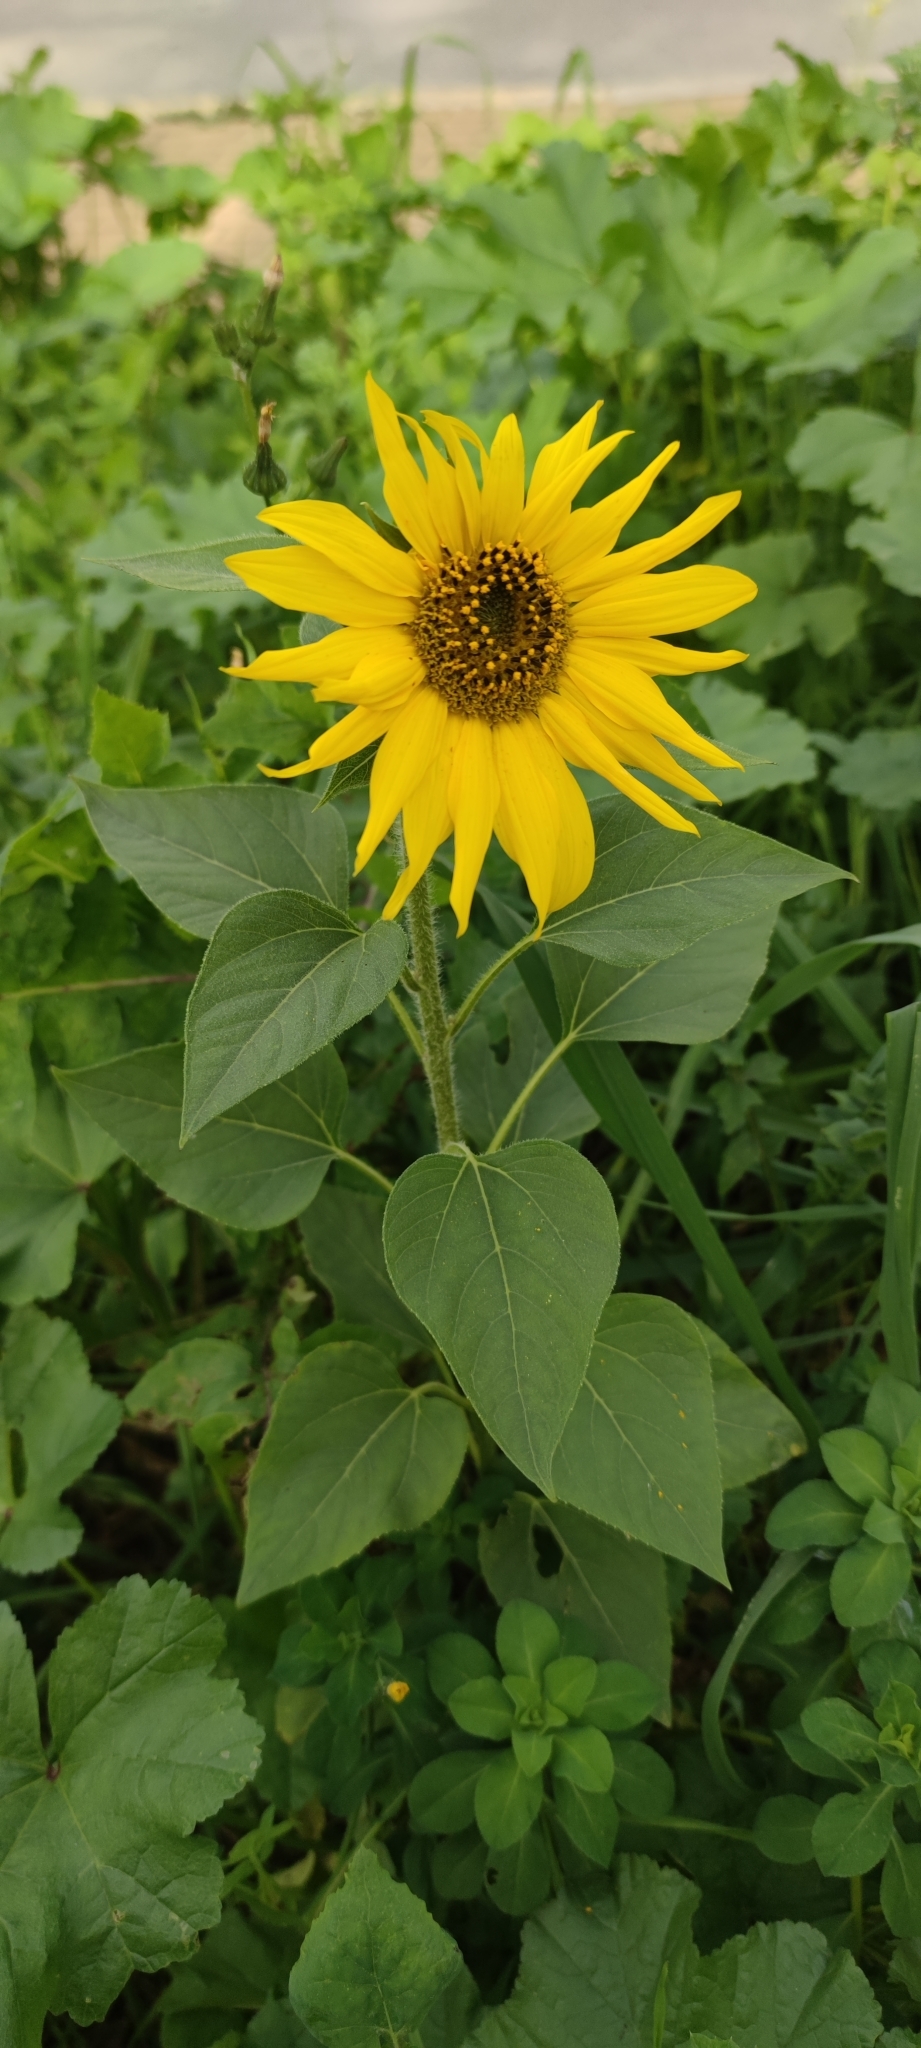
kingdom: Plantae
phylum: Tracheophyta
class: Magnoliopsida
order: Asterales
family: Asteraceae
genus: Helianthus
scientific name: Helianthus annuus
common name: Sunflower
